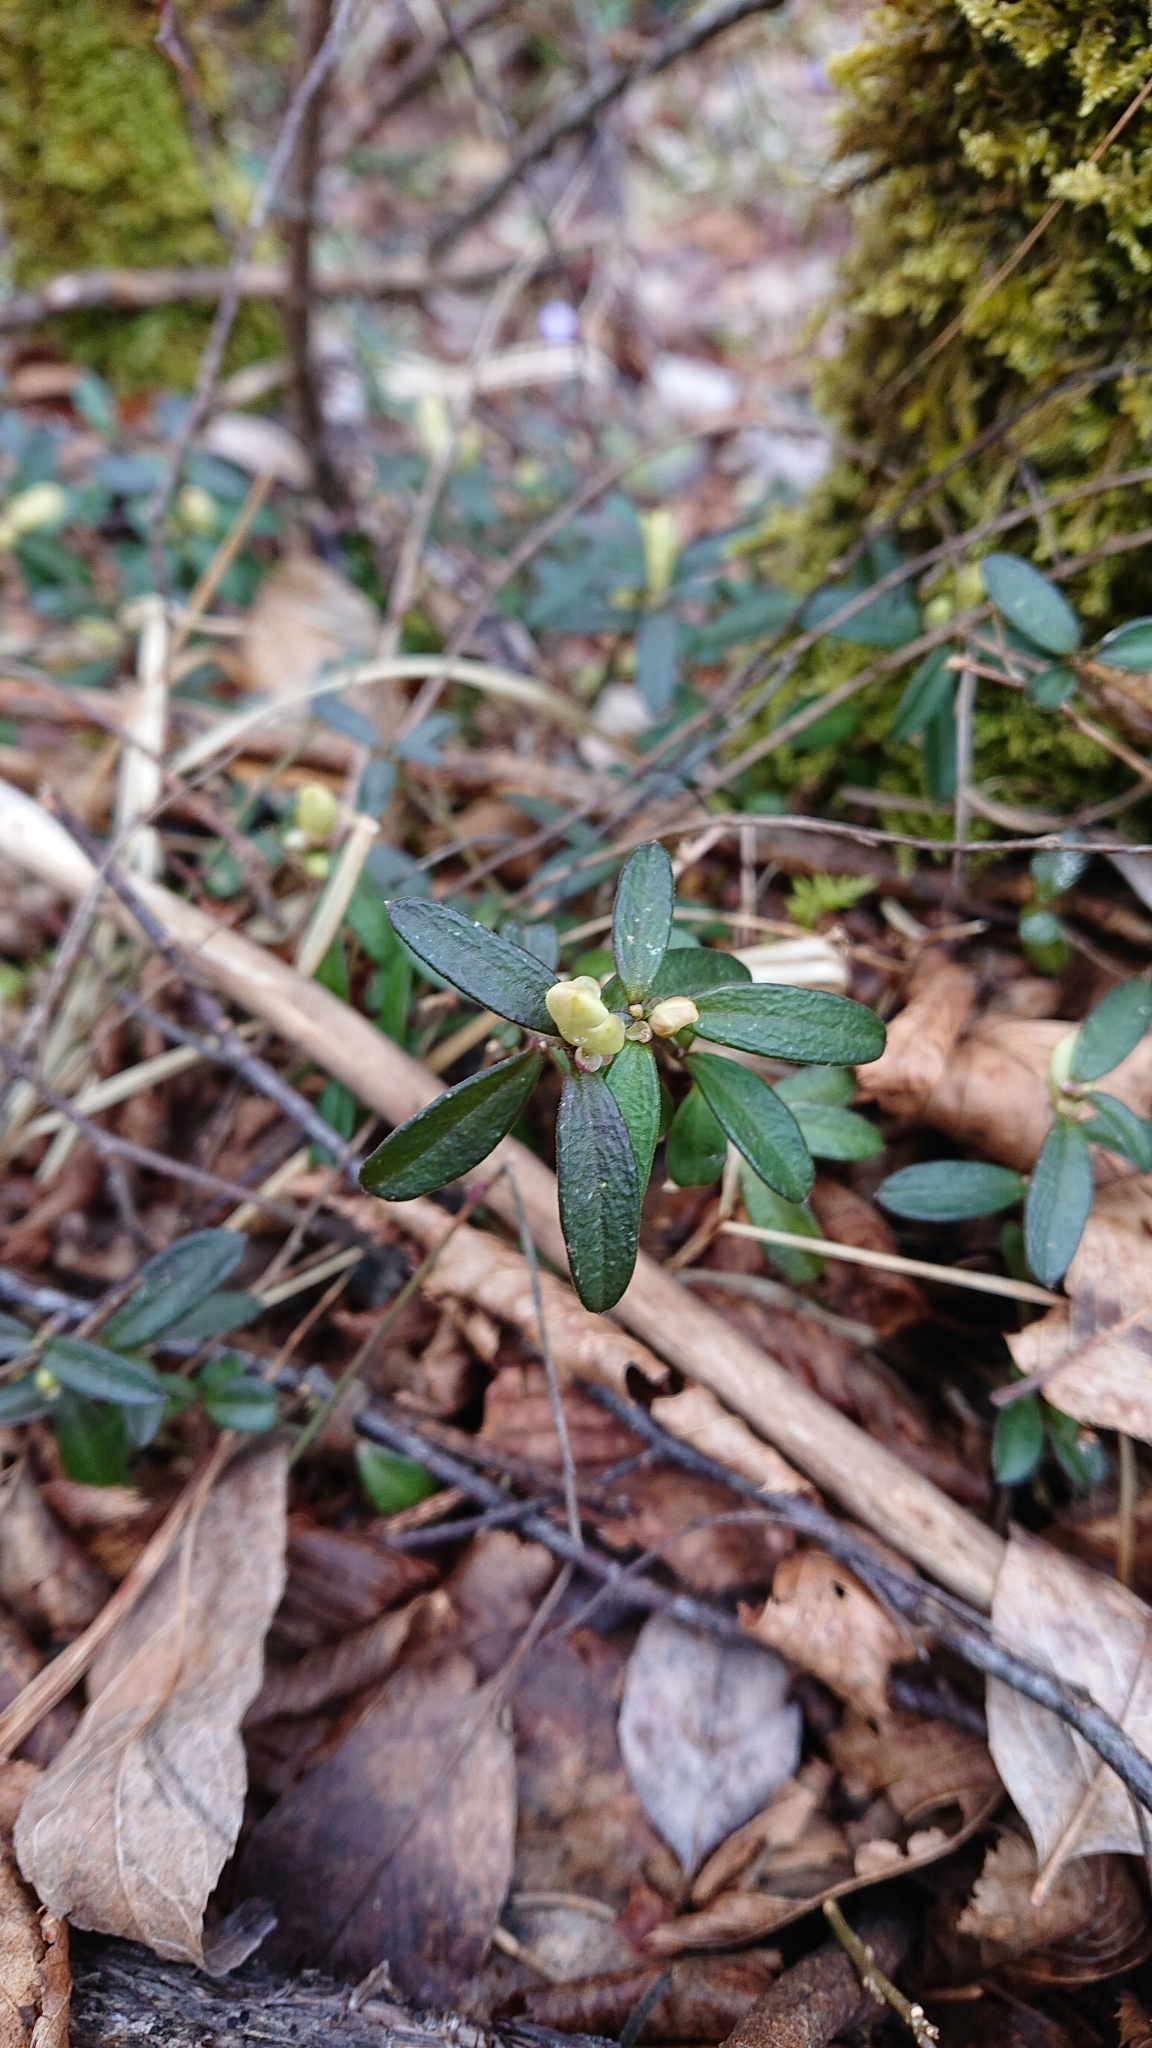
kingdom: Plantae
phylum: Tracheophyta
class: Magnoliopsida
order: Fabales
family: Polygalaceae
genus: Polygaloides
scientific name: Polygaloides chamaebuxus
